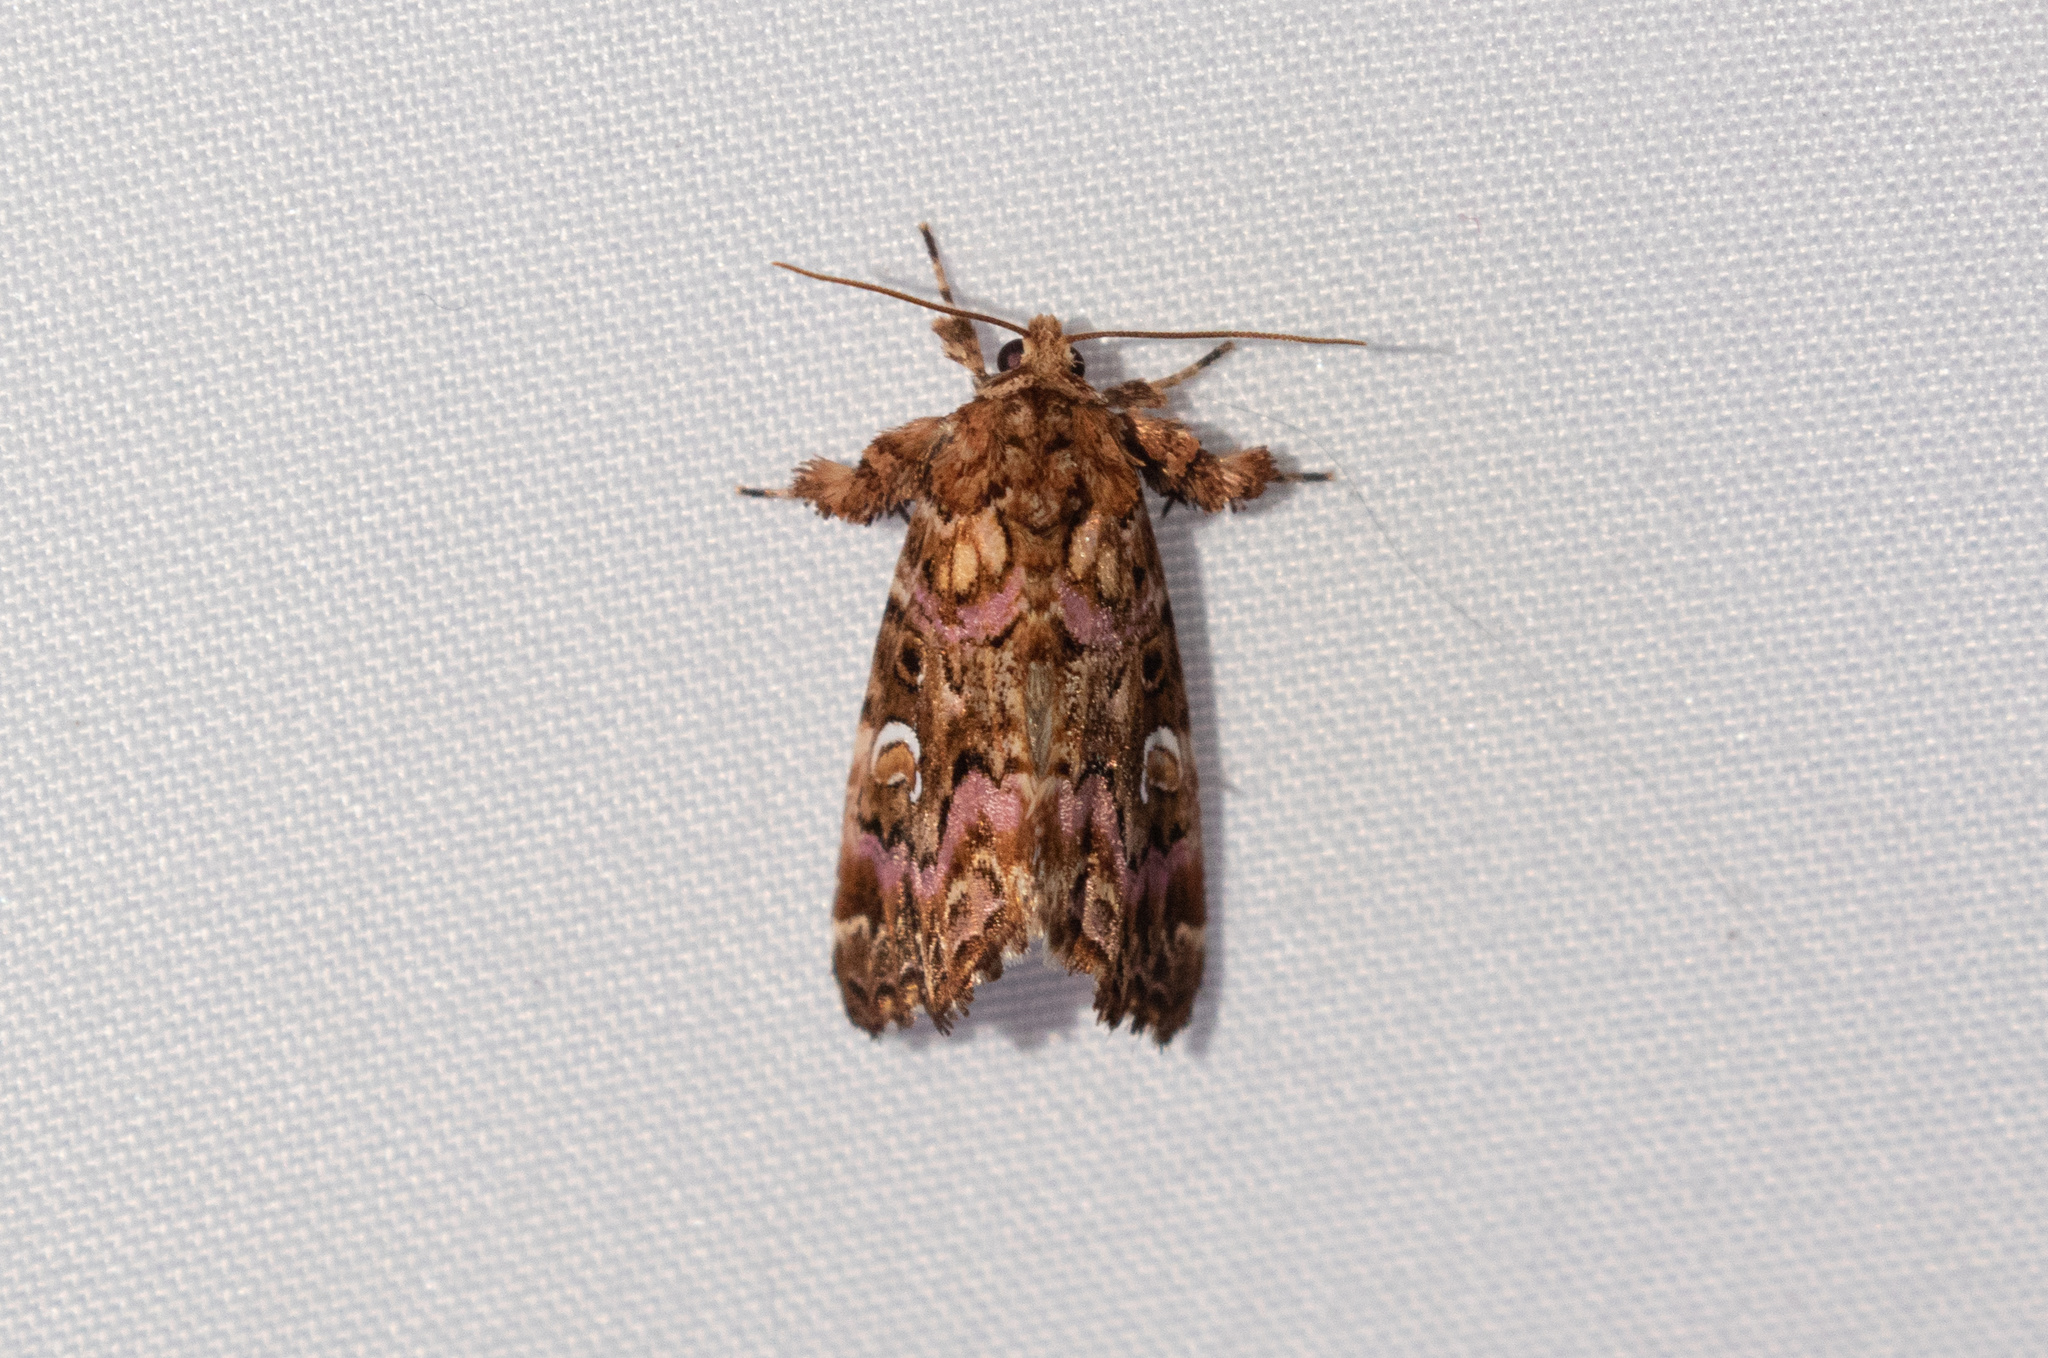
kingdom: Animalia
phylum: Arthropoda
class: Insecta
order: Lepidoptera
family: Noctuidae
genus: Callopistria
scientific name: Callopistria mollissima
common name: Pink-shaded fern moth
